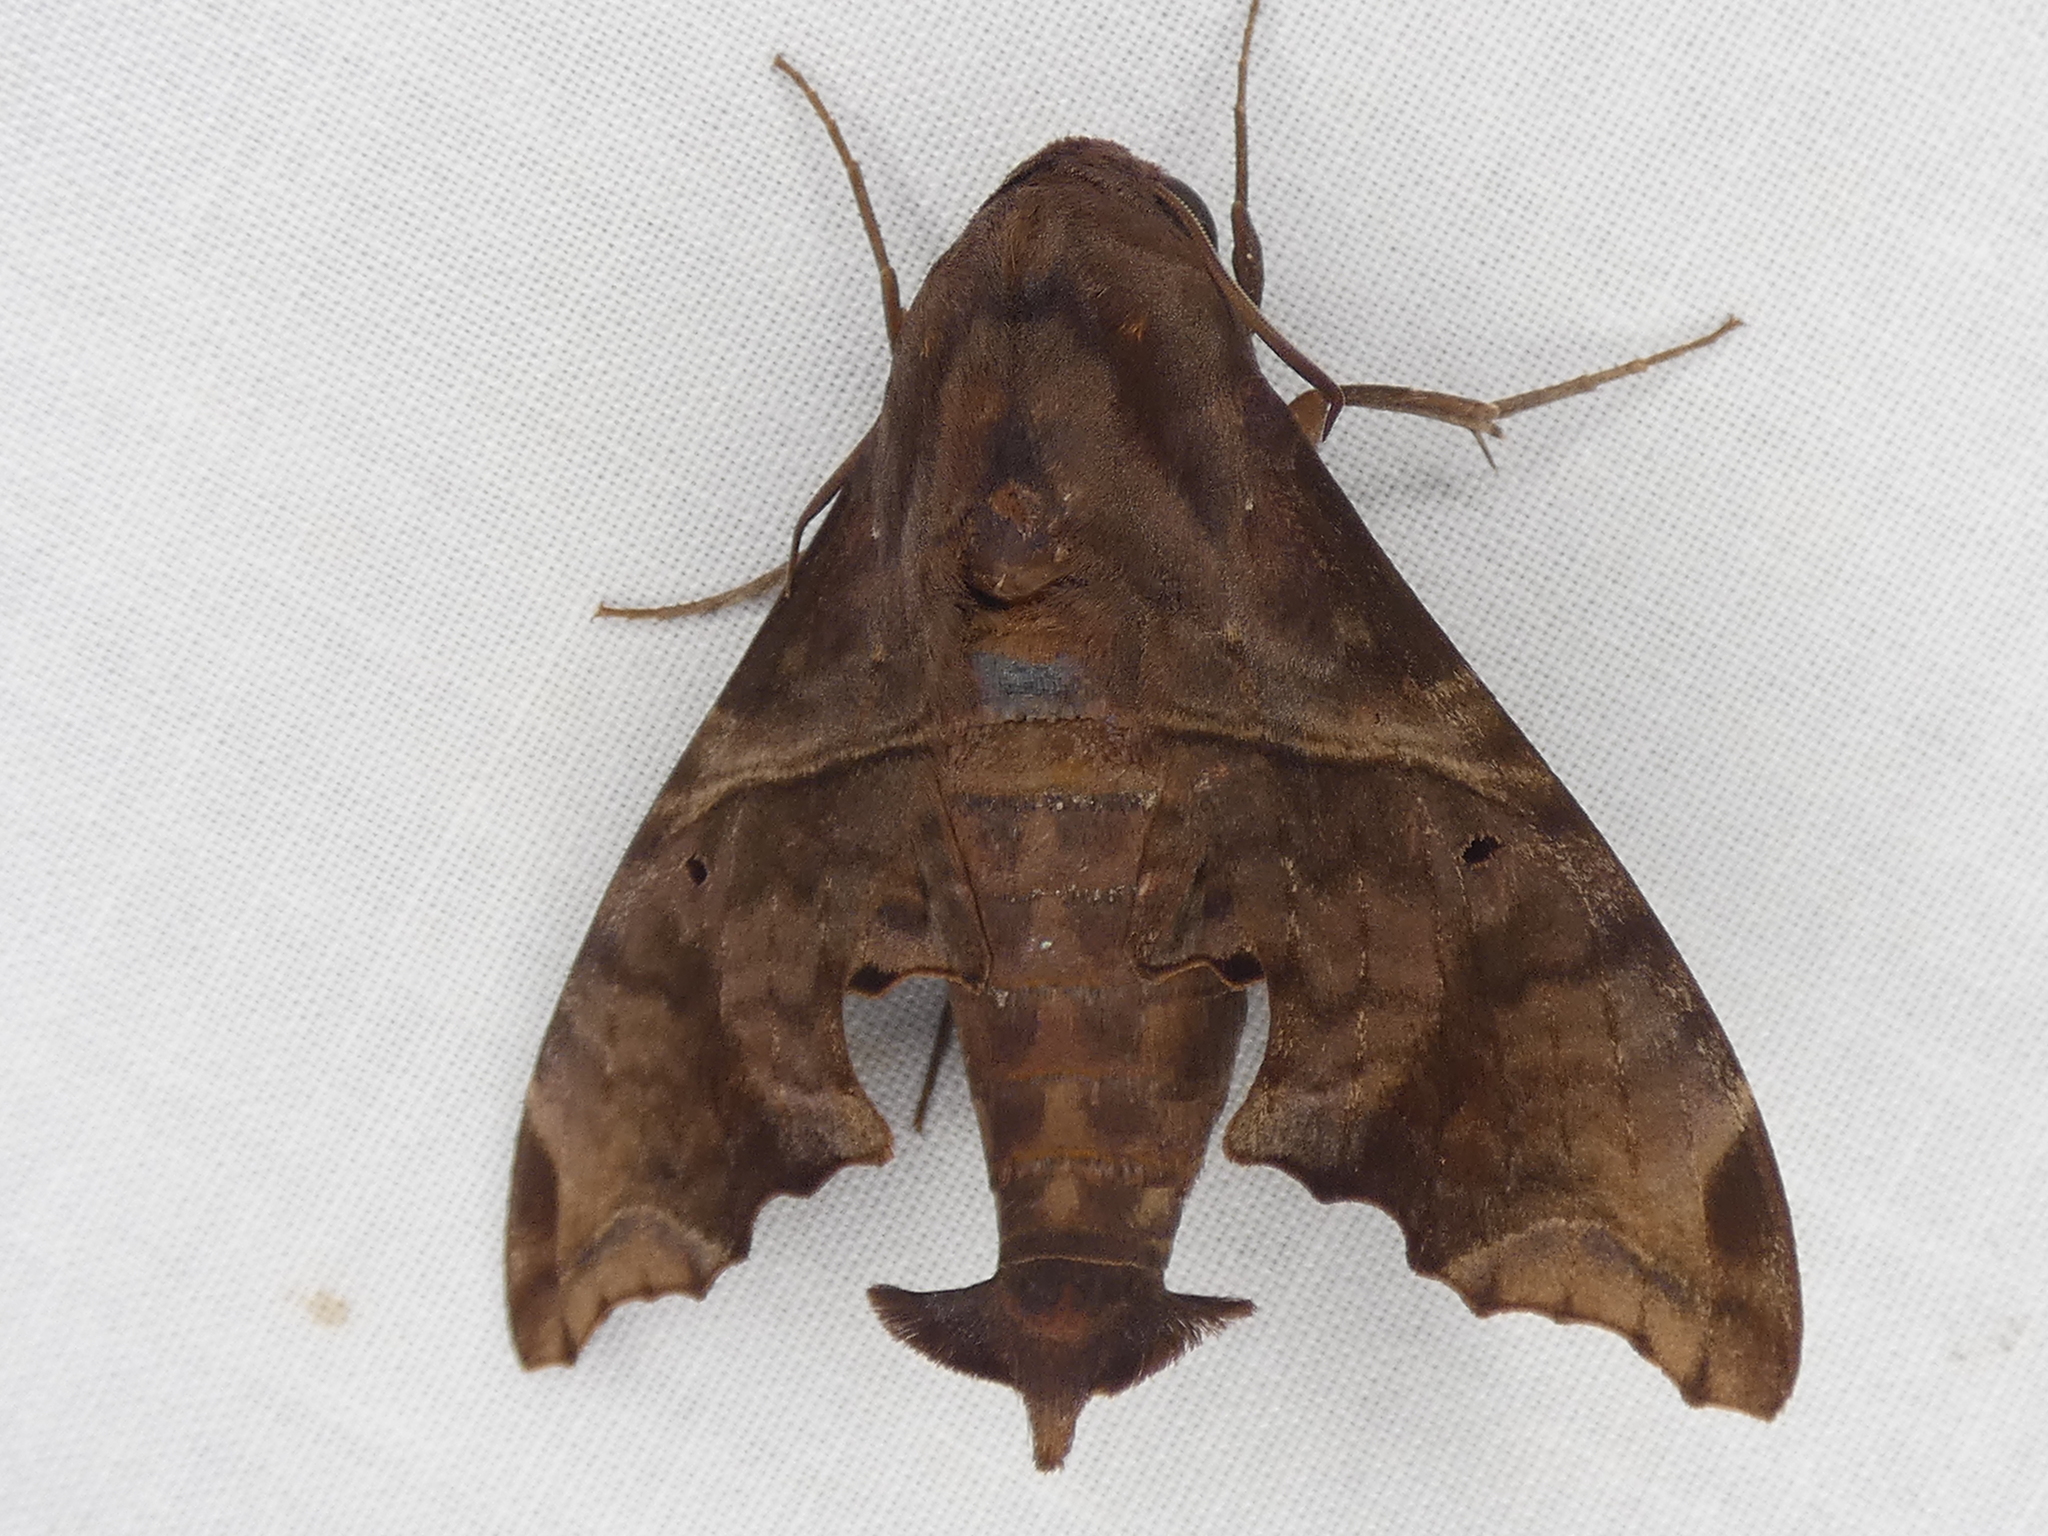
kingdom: Animalia
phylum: Arthropoda
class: Insecta
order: Lepidoptera
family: Sphingidae
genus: Enyo
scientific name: Enyo lugubris
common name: Mournful sphinx
